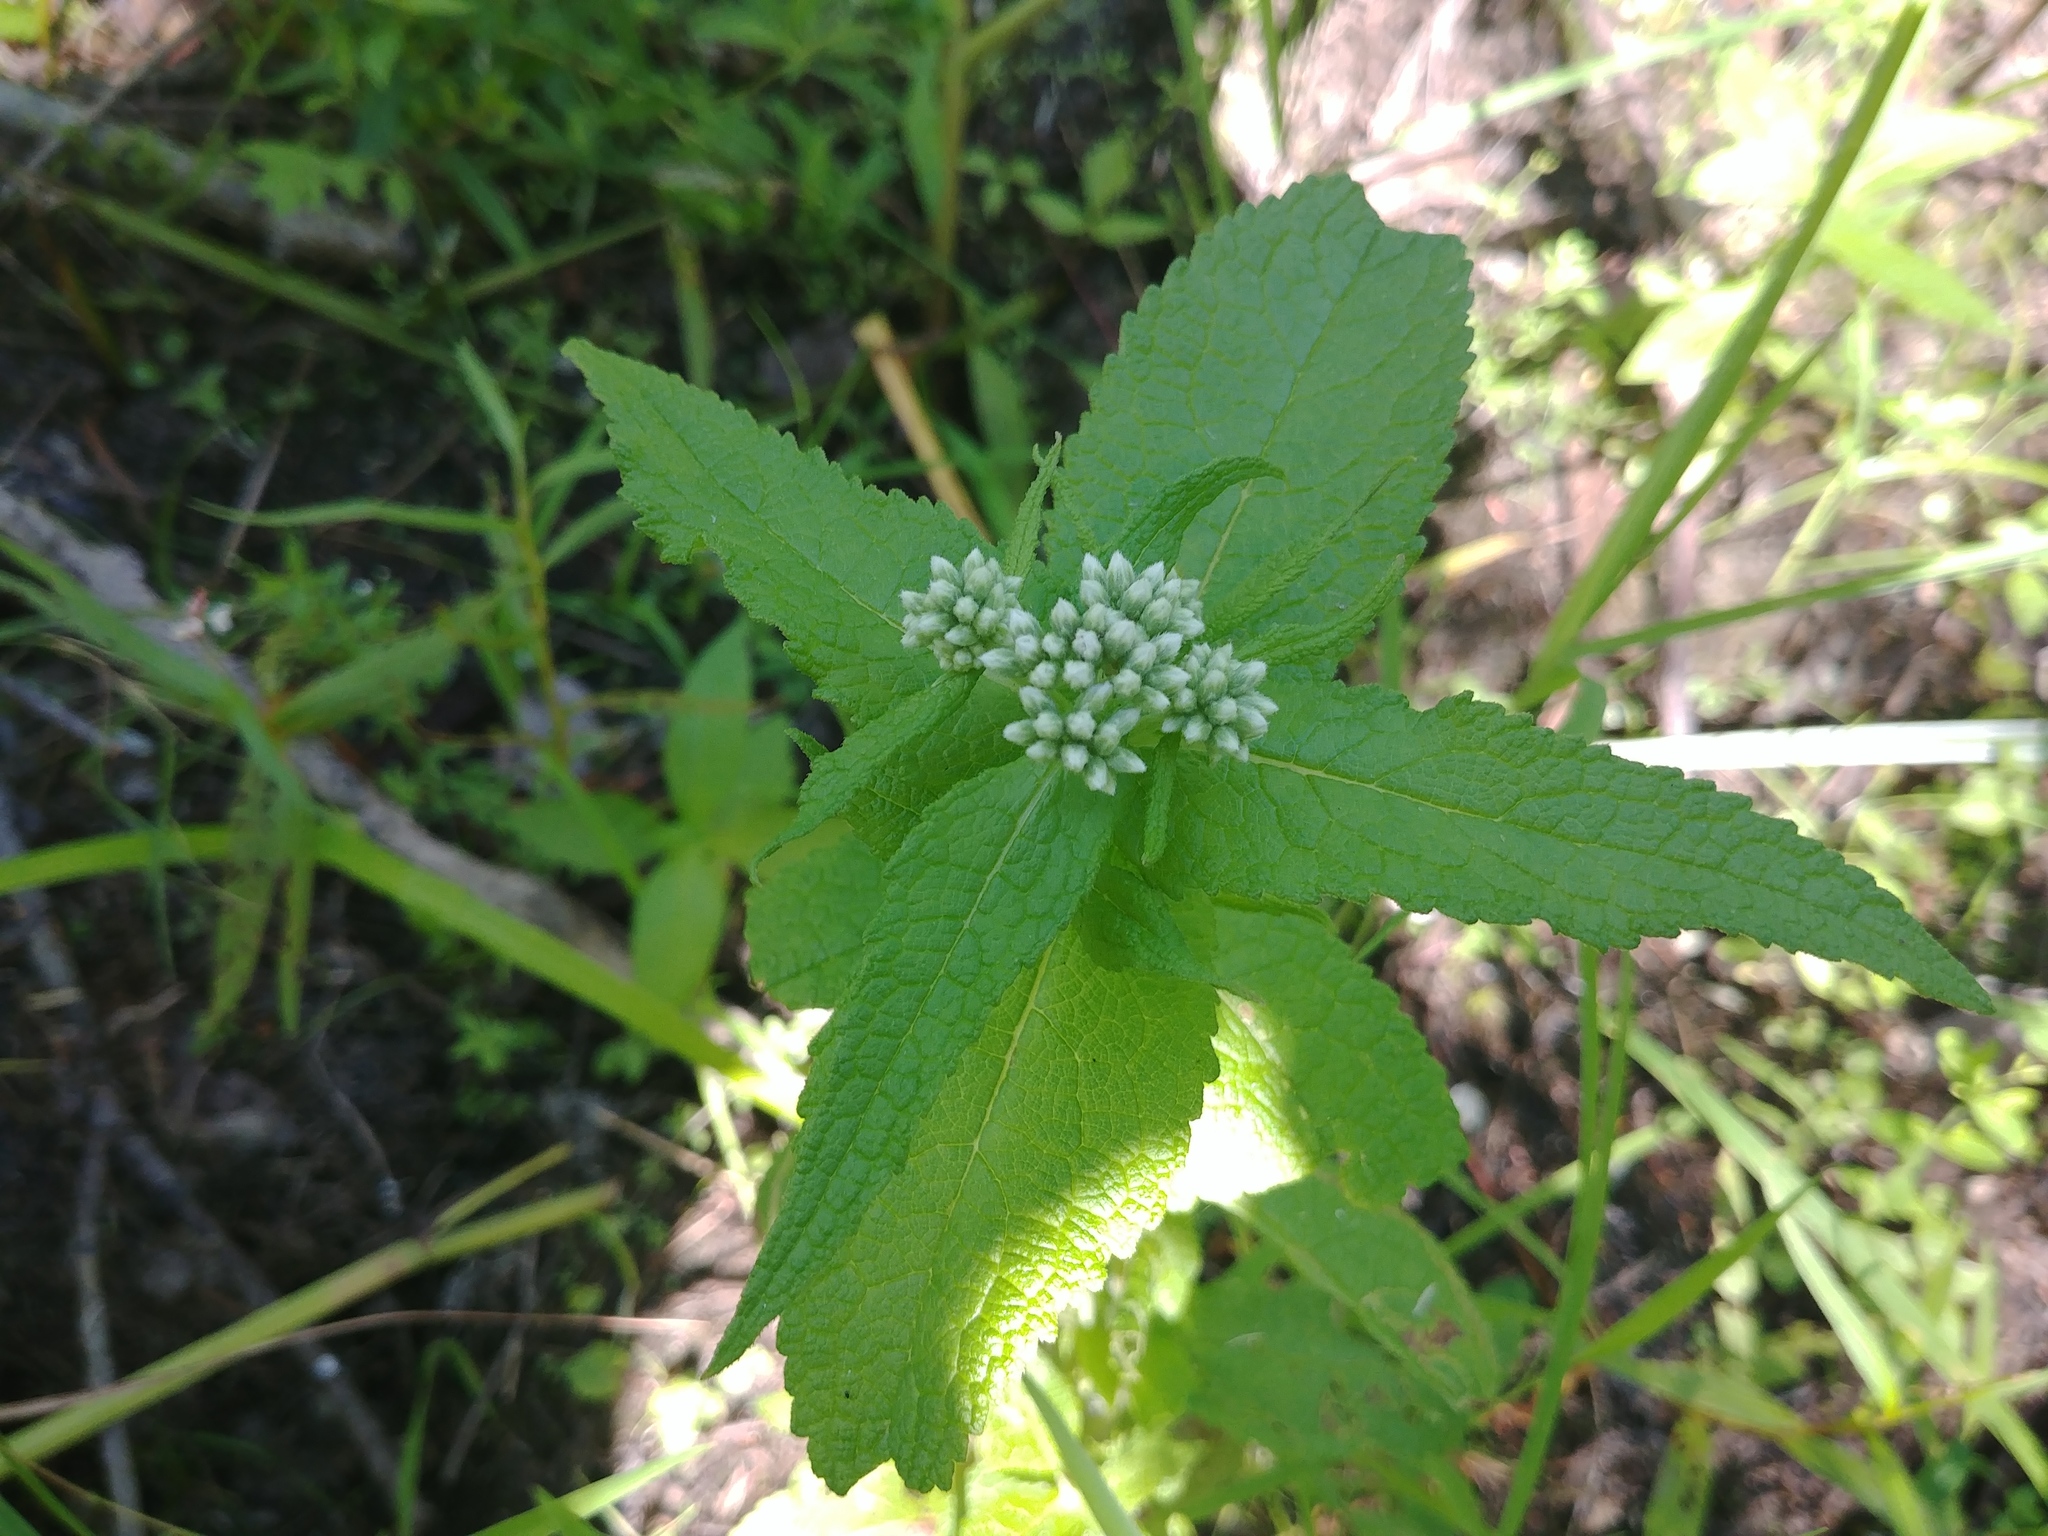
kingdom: Plantae
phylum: Tracheophyta
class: Magnoliopsida
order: Asterales
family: Asteraceae
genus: Eupatorium
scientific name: Eupatorium perfoliatum
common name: Boneset
